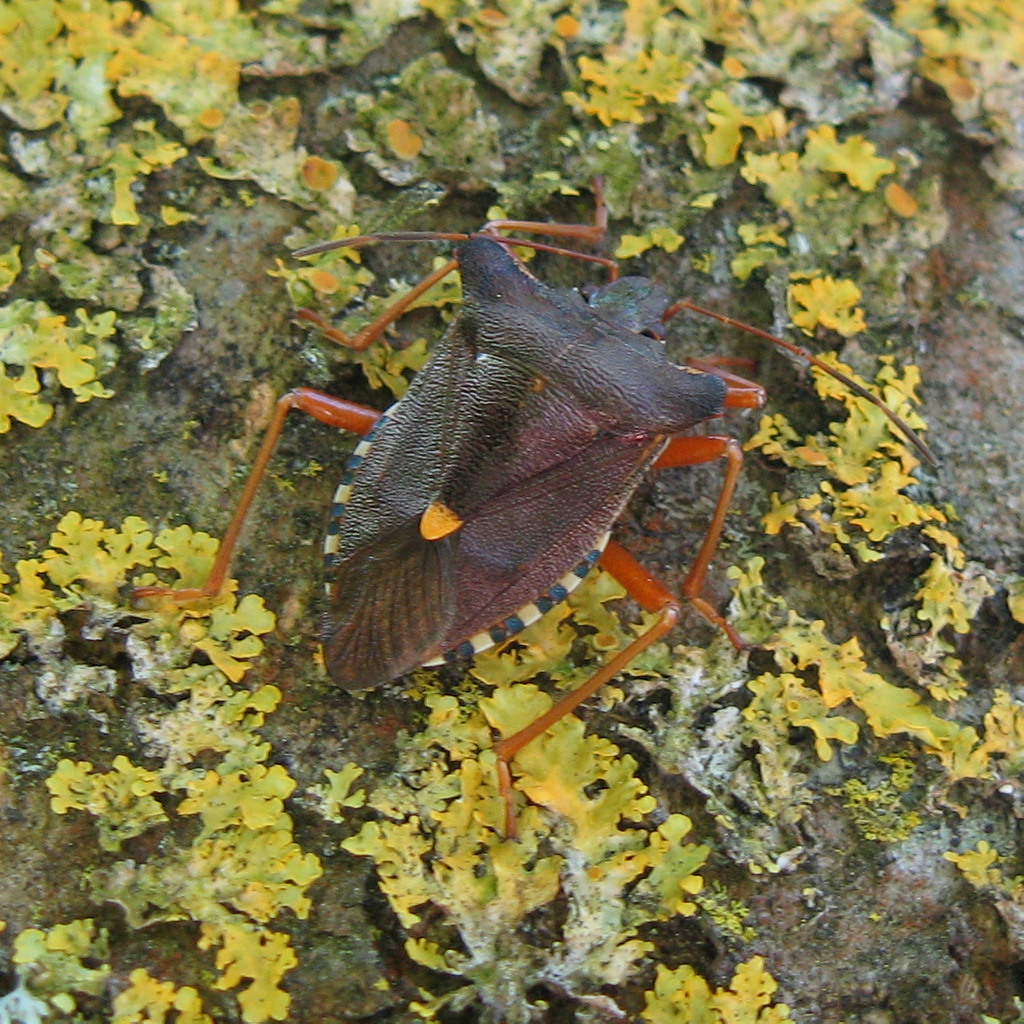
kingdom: Animalia
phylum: Arthropoda
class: Insecta
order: Hemiptera
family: Pentatomidae
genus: Pentatoma
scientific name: Pentatoma rufipes
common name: Forest bug
